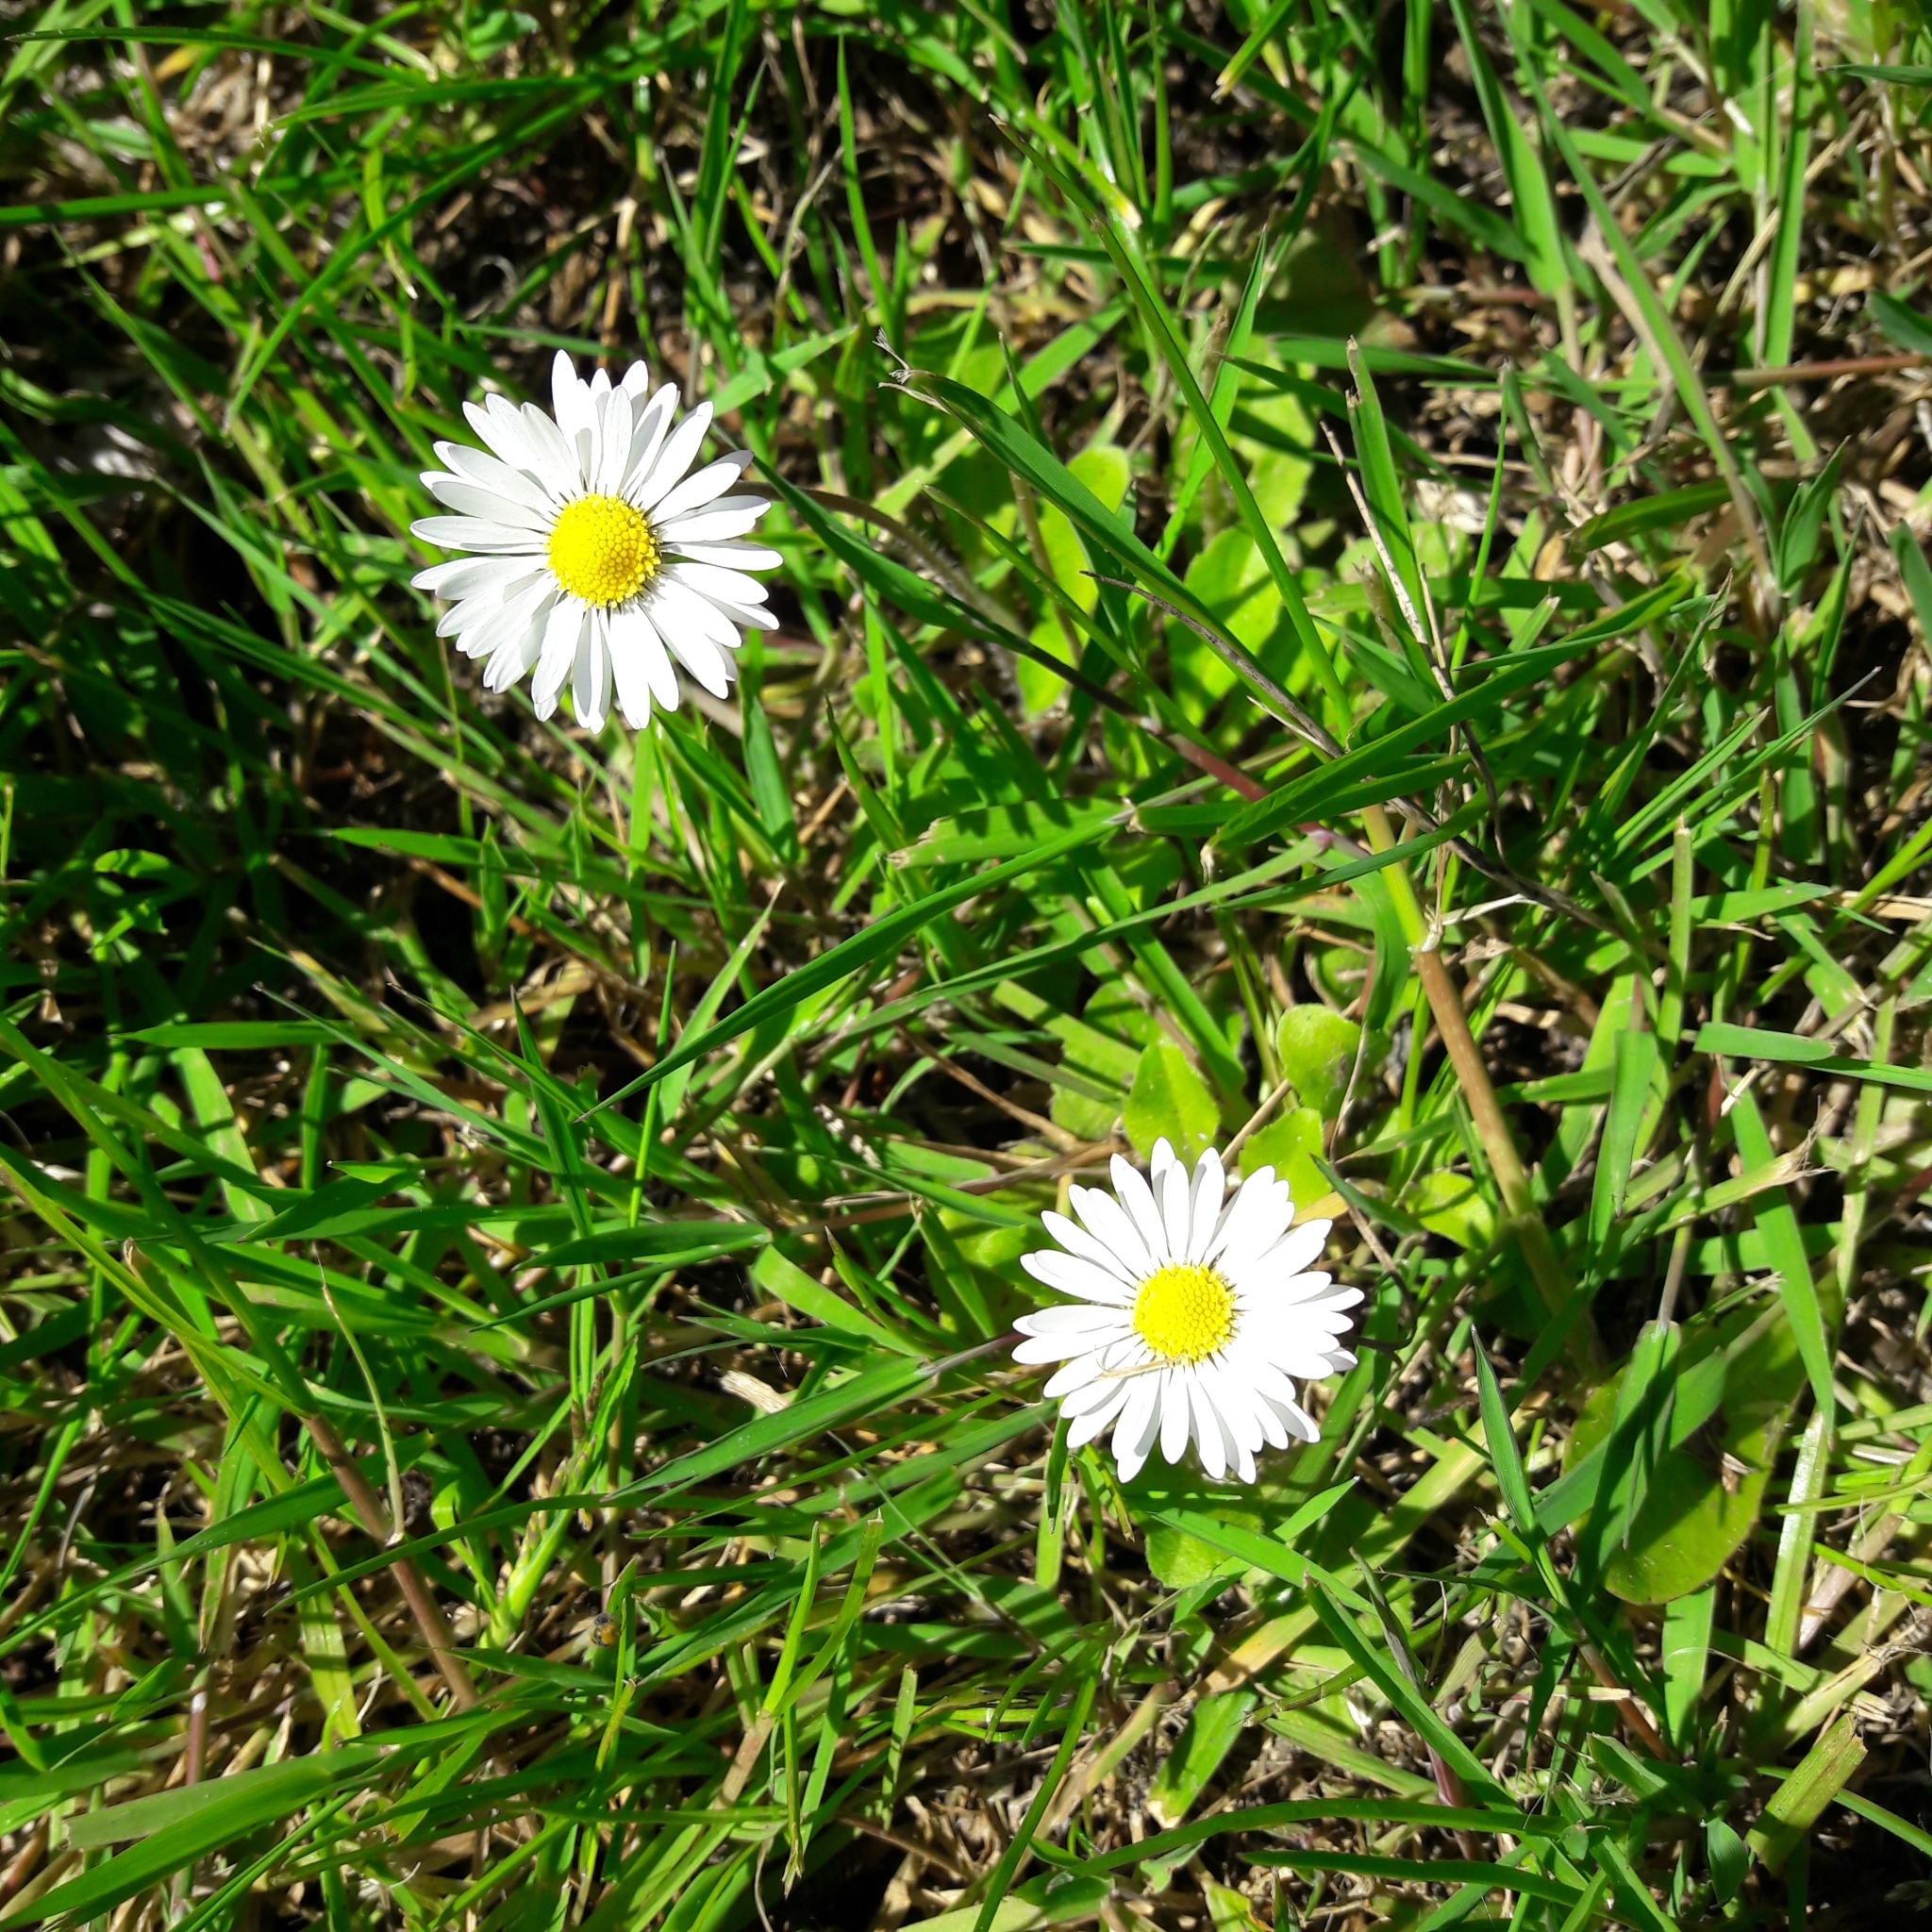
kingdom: Plantae
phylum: Tracheophyta
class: Magnoliopsida
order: Asterales
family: Asteraceae
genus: Bellis
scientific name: Bellis perennis
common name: Lawndaisy
